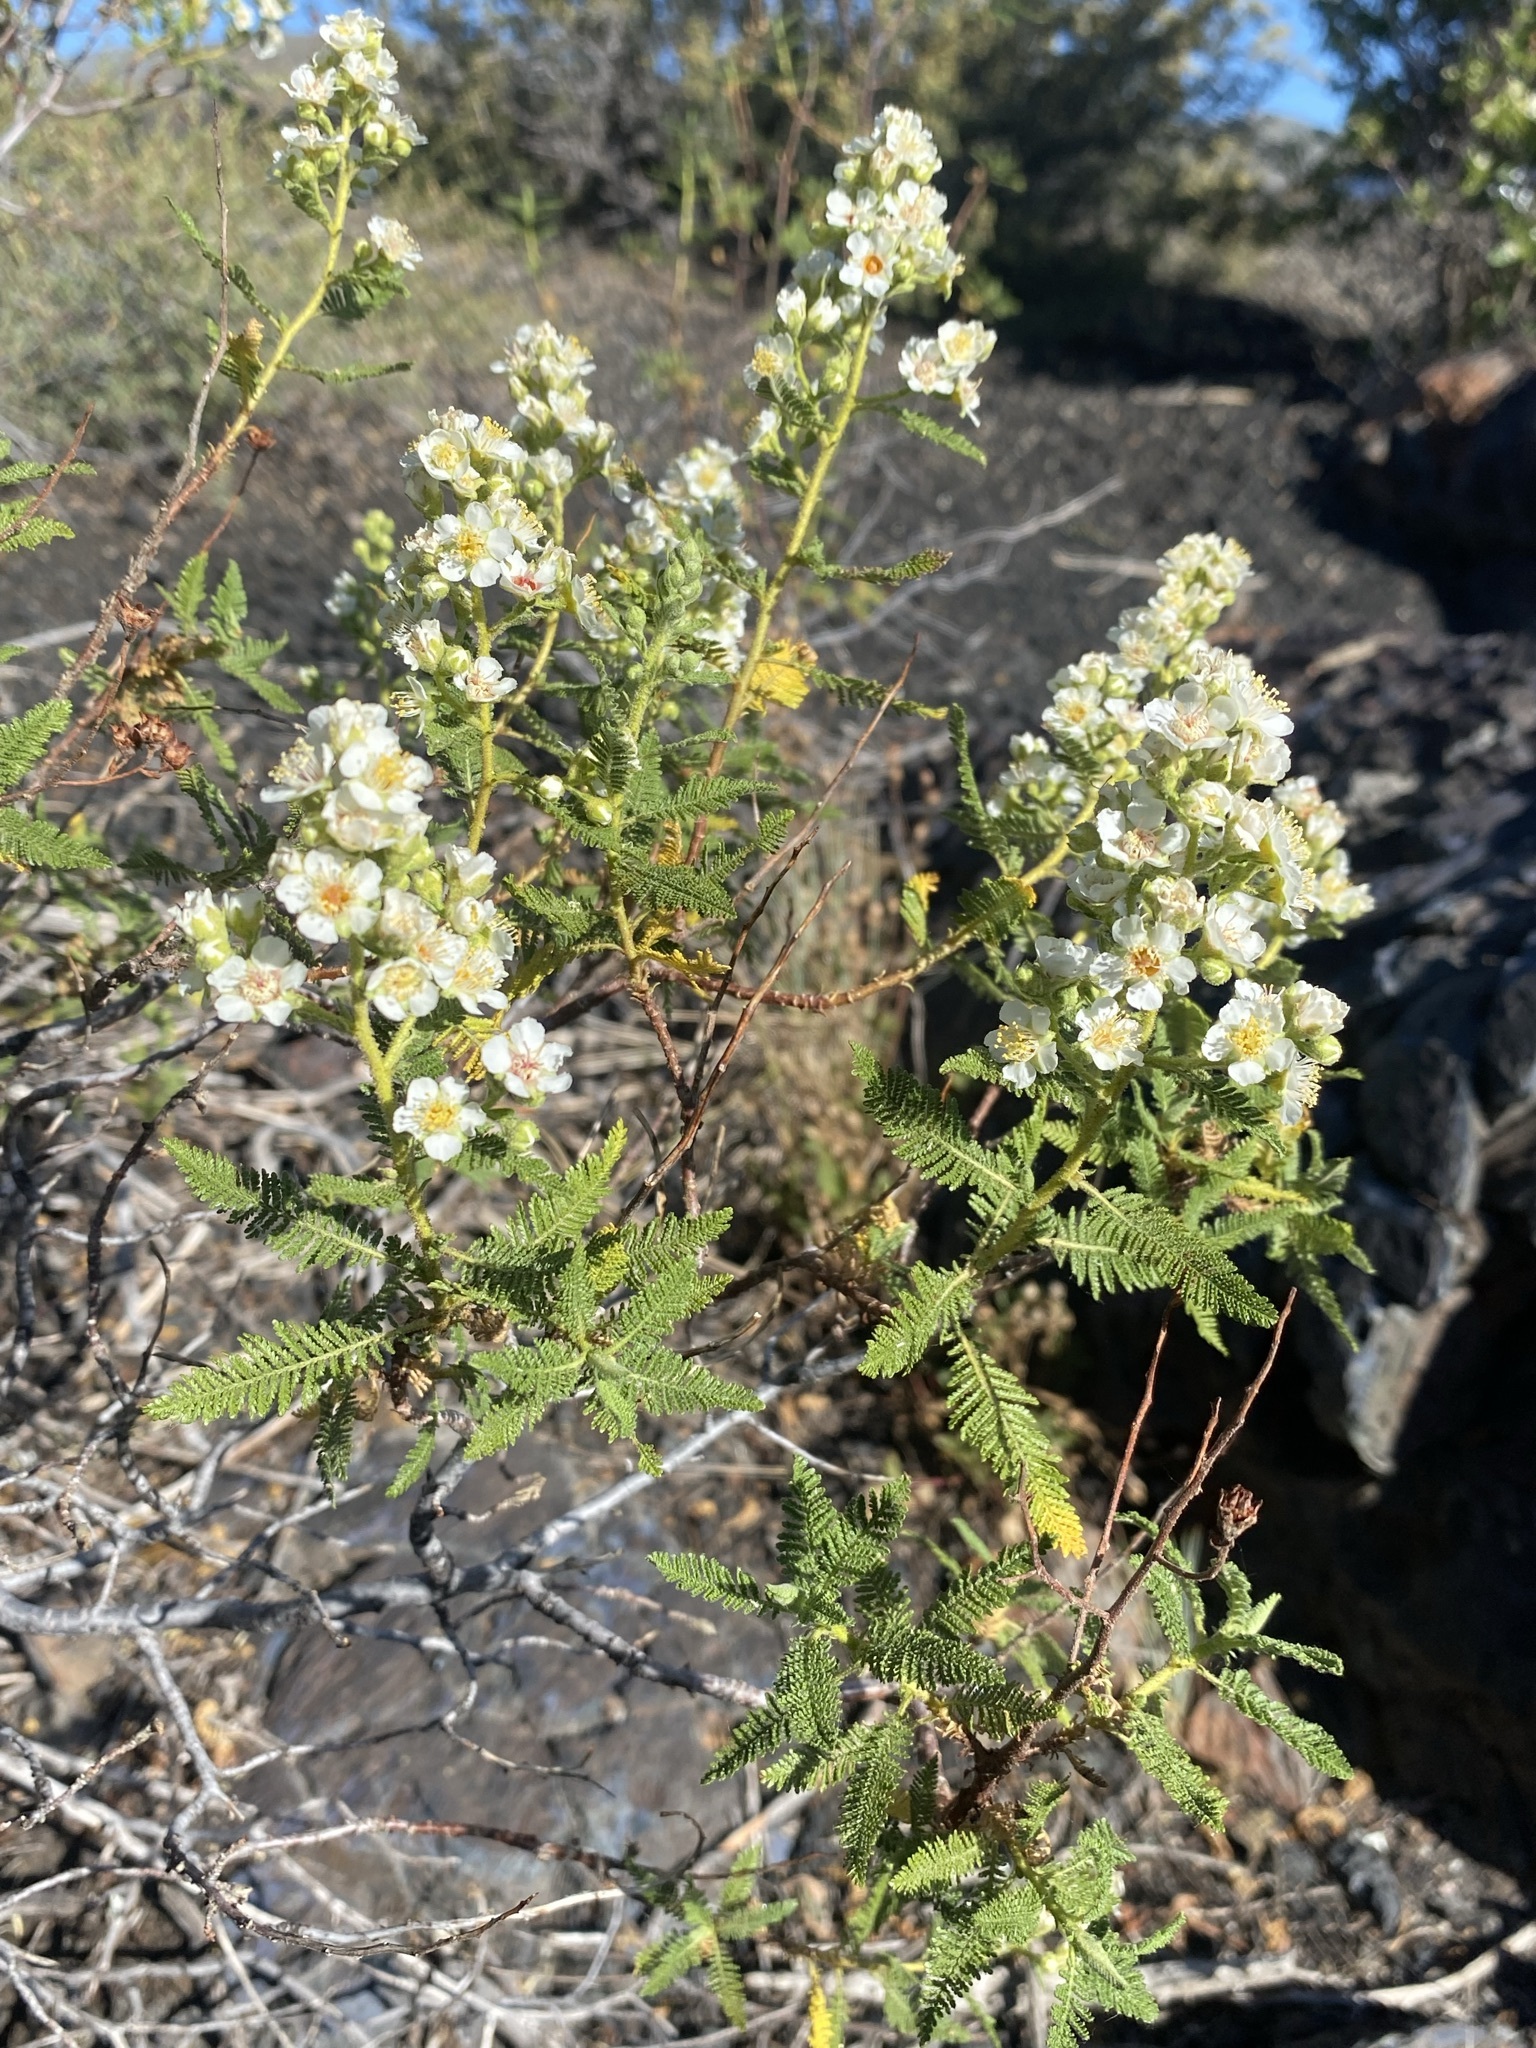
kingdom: Plantae
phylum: Tracheophyta
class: Magnoliopsida
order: Rosales
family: Rosaceae
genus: Chamaebatiaria
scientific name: Chamaebatiaria millefolium
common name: Fernbush
